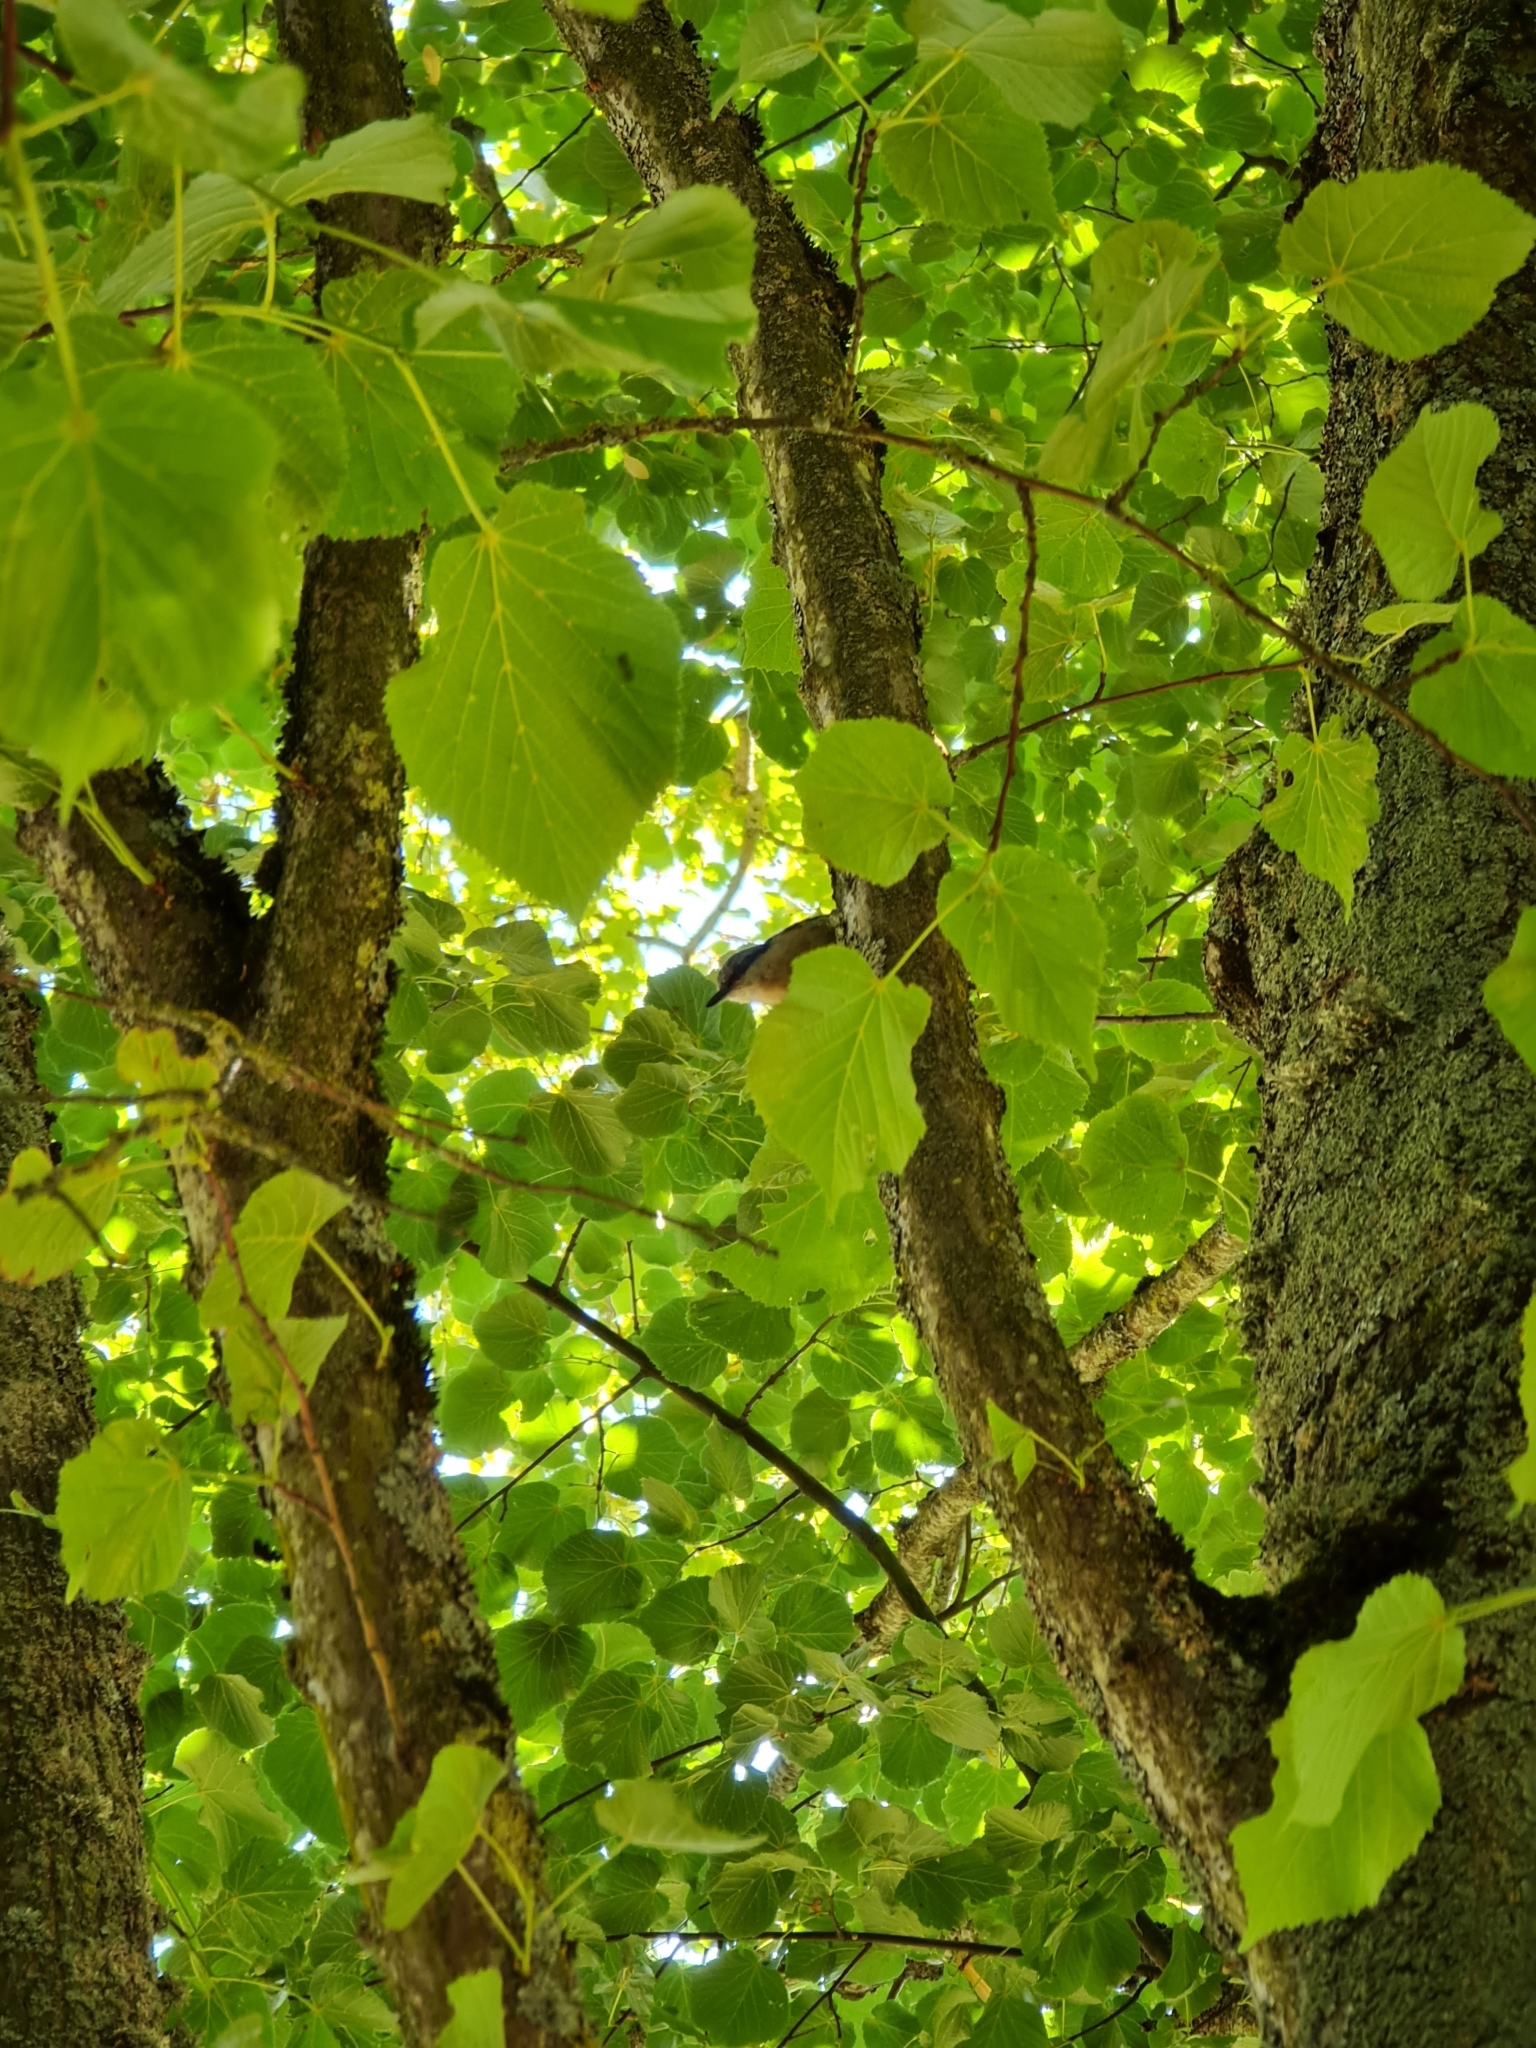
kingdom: Animalia
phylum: Chordata
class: Aves
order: Passeriformes
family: Sittidae
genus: Sitta
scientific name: Sitta europaea
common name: Eurasian nuthatch
